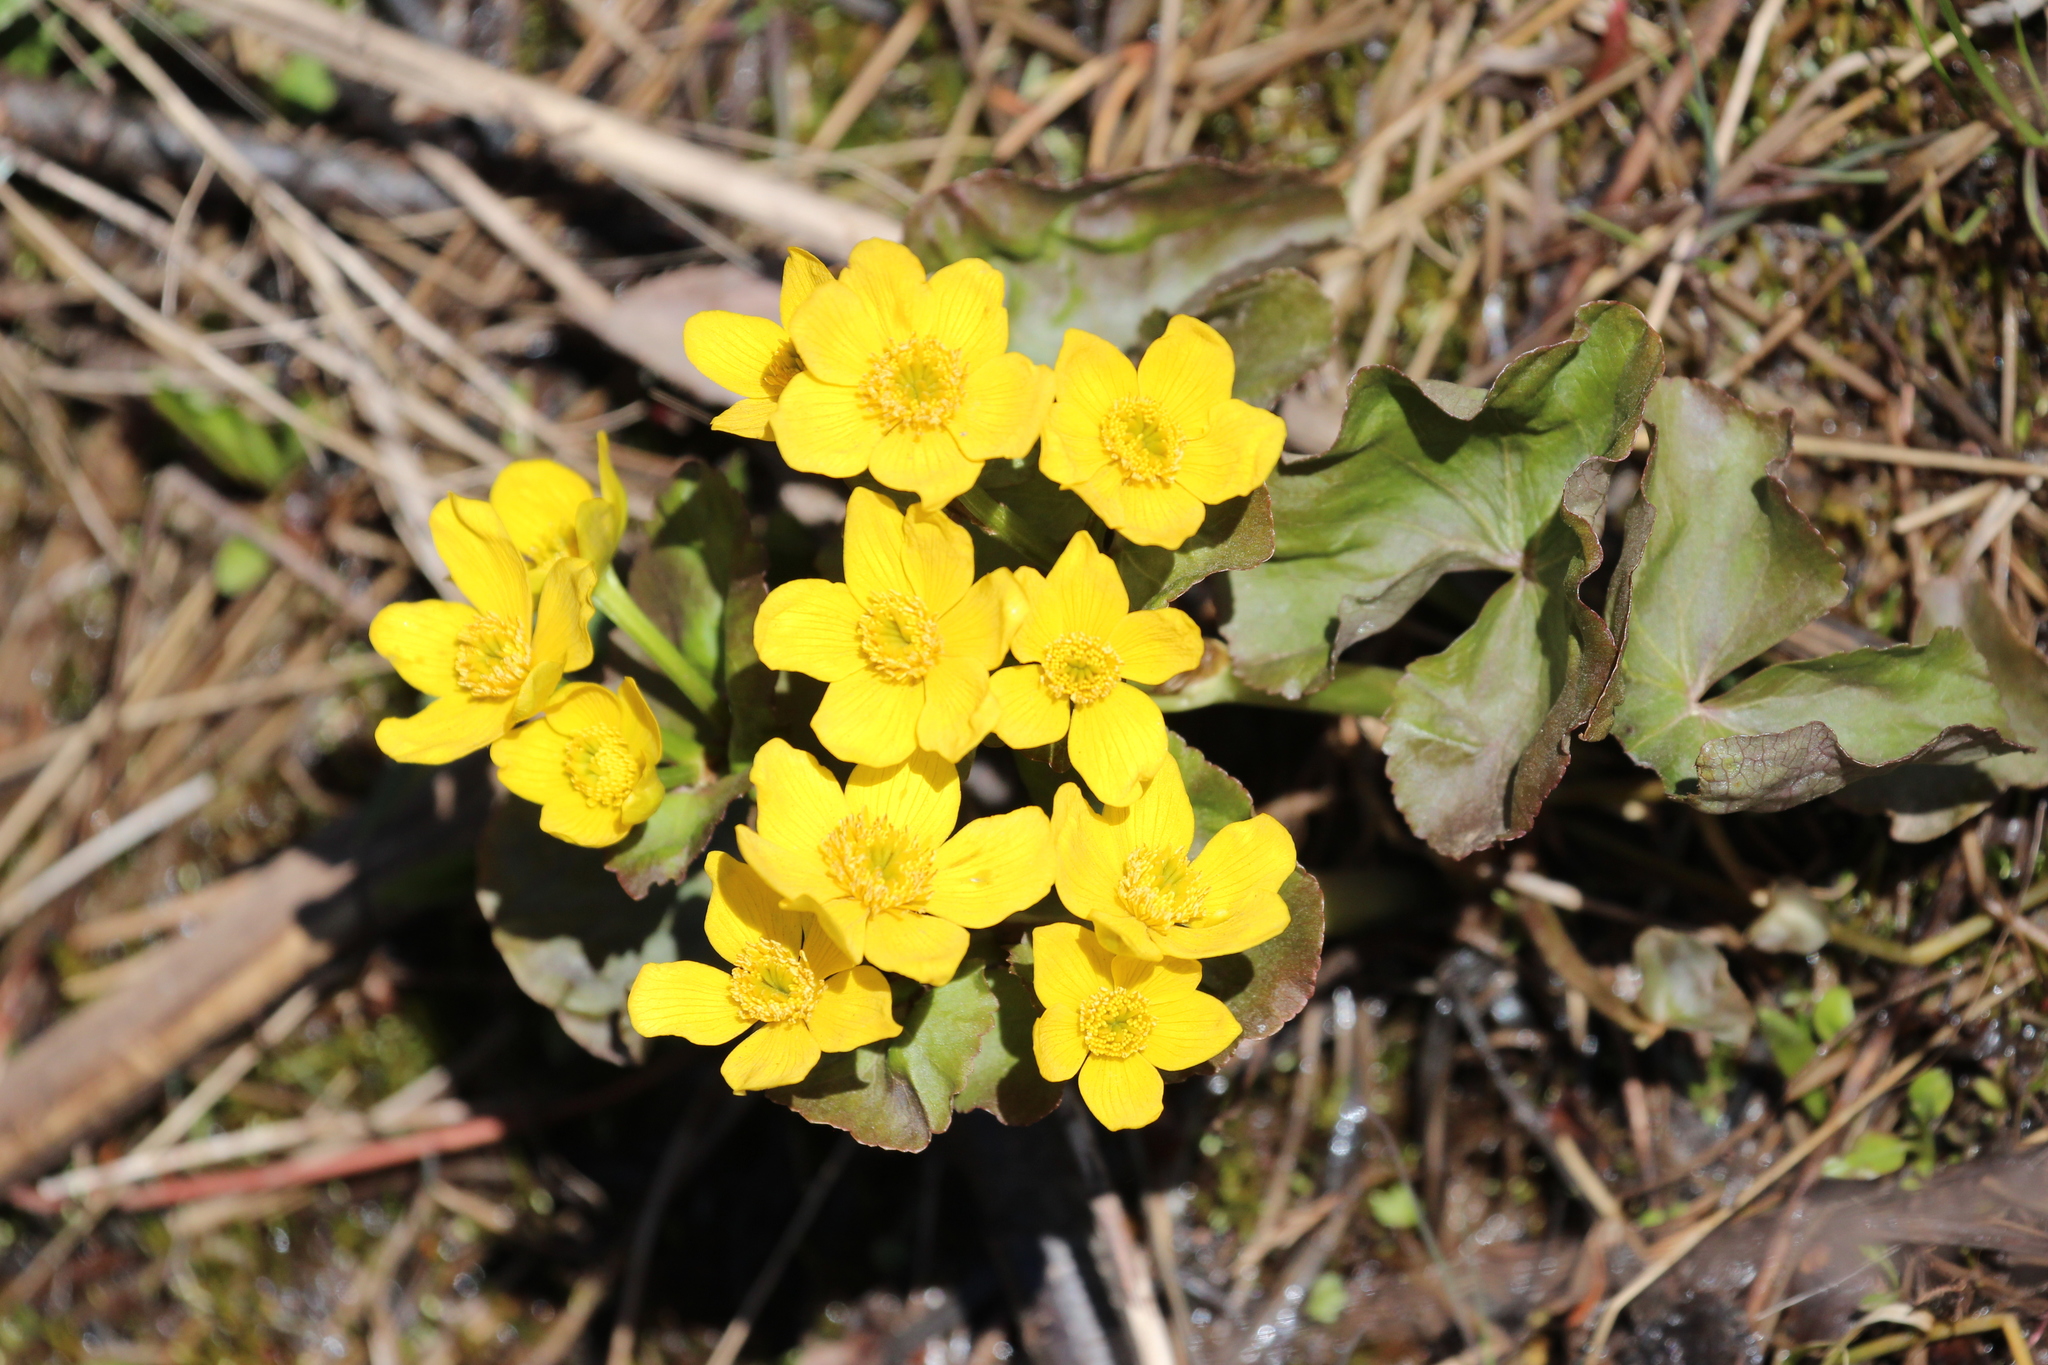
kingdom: Plantae
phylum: Tracheophyta
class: Magnoliopsida
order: Ranunculales
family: Ranunculaceae
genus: Caltha
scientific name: Caltha palustris
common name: Marsh marigold
